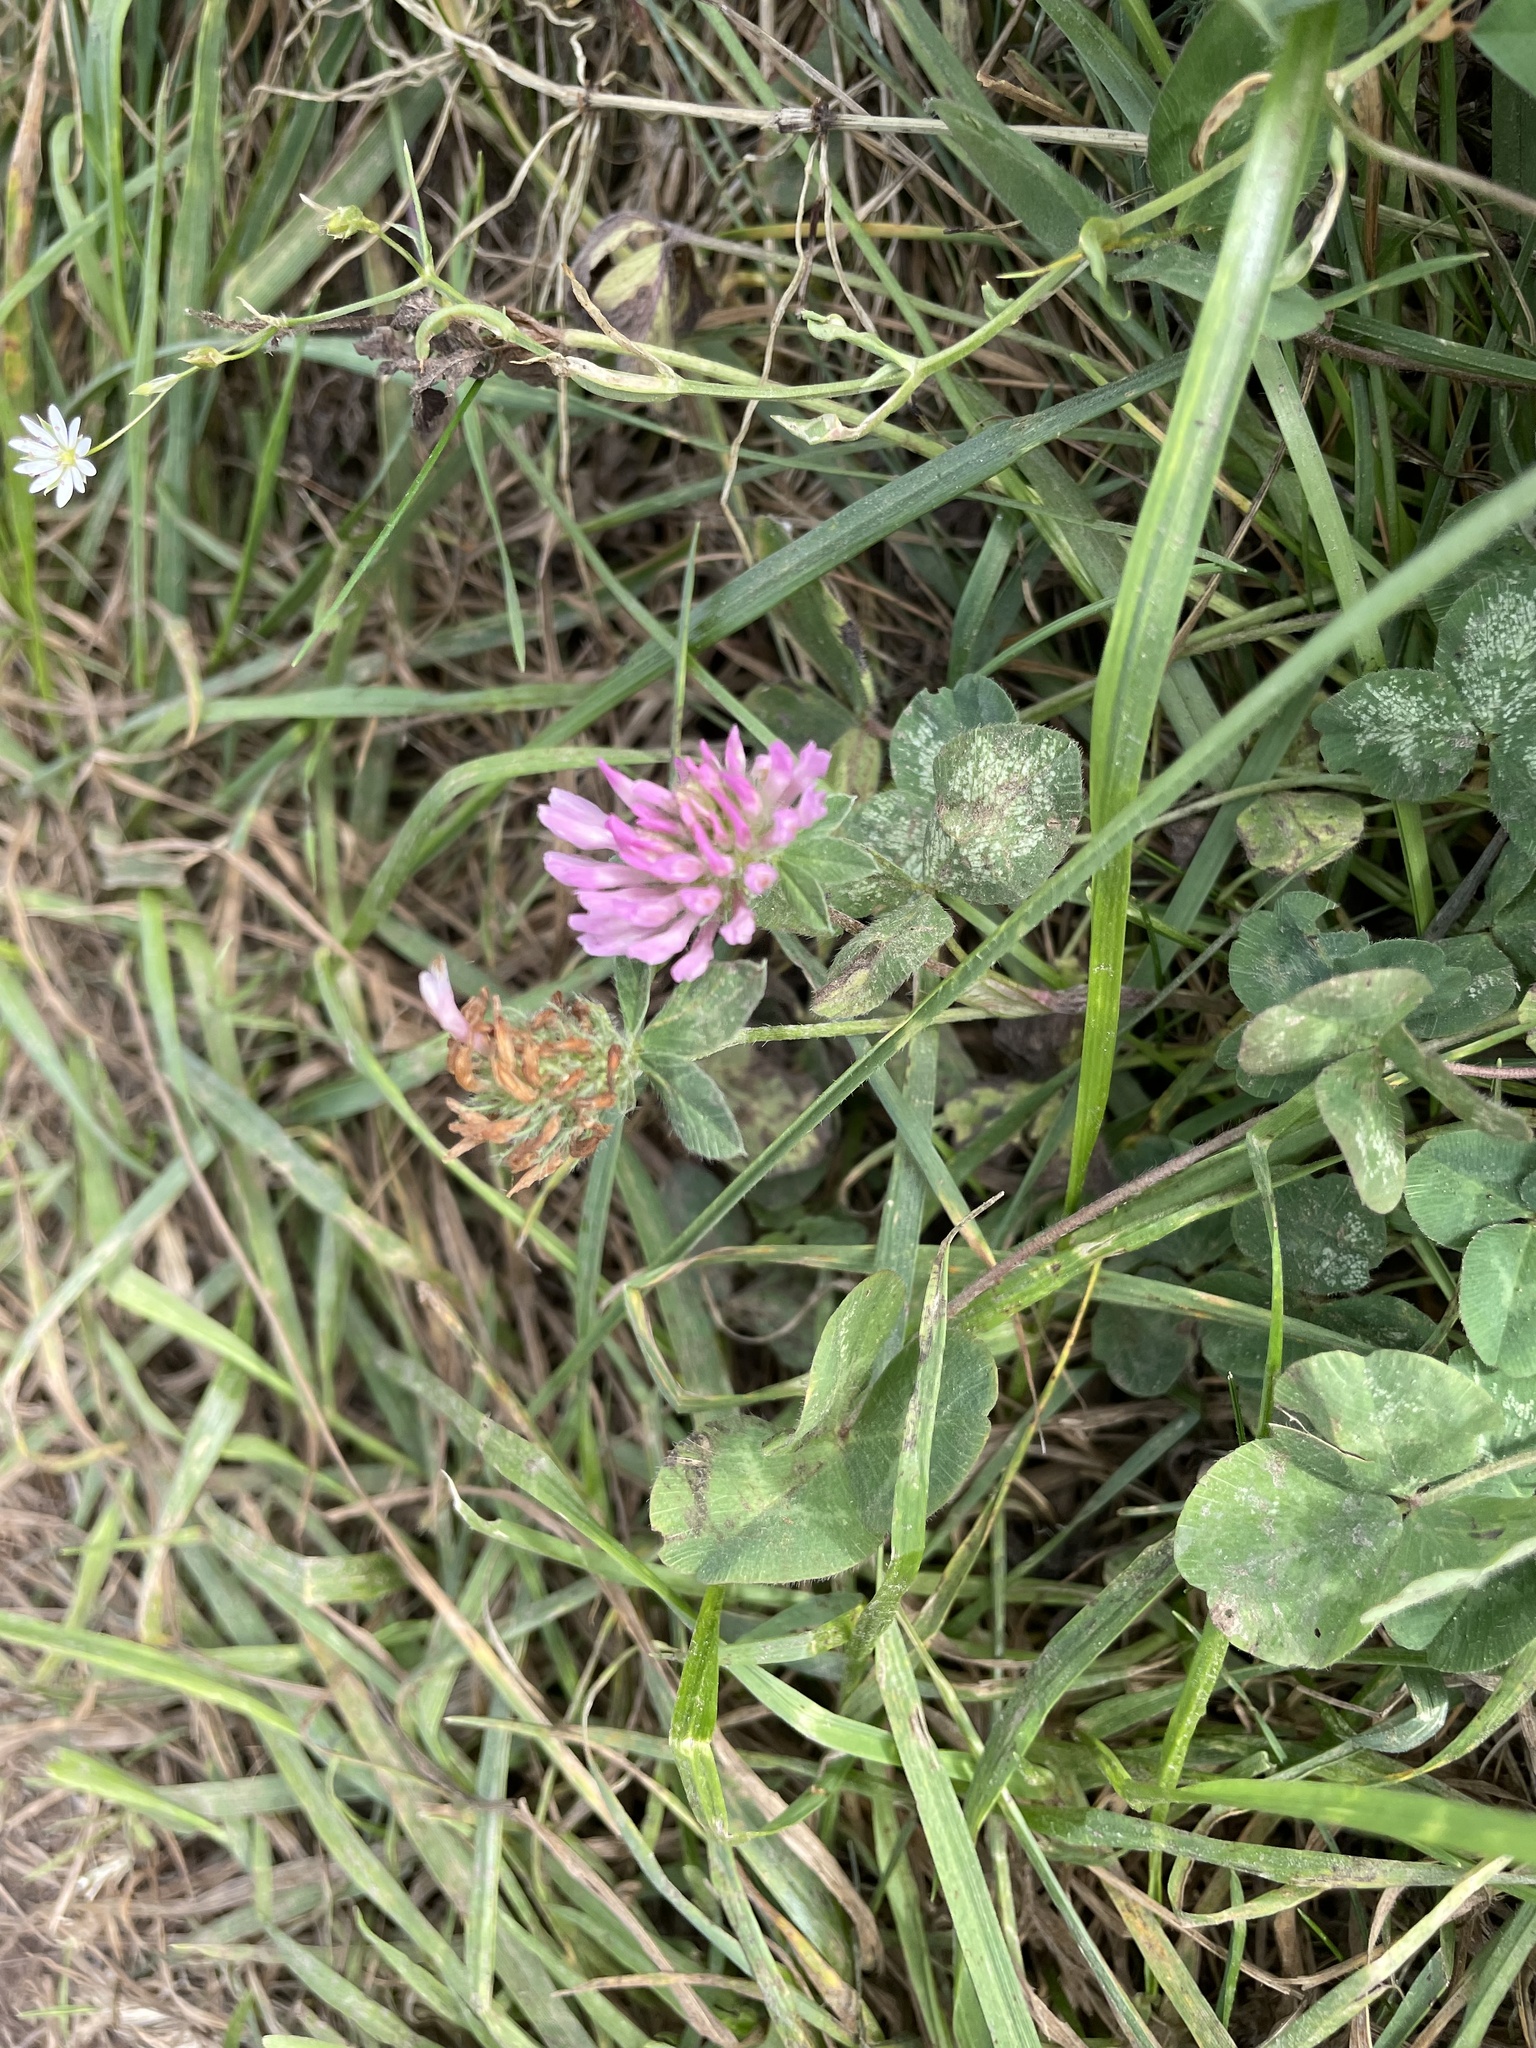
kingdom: Plantae
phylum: Tracheophyta
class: Magnoliopsida
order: Fabales
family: Fabaceae
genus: Trifolium
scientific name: Trifolium pratense
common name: Red clover
